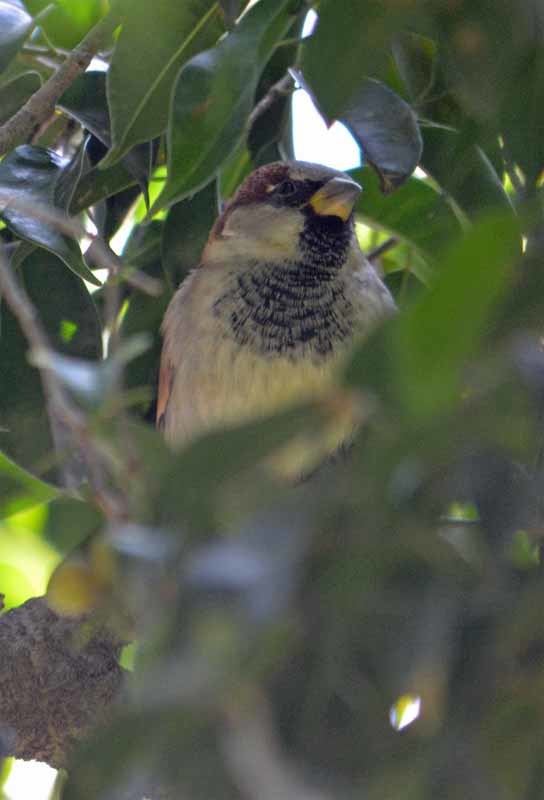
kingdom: Animalia
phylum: Chordata
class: Aves
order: Passeriformes
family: Passeridae
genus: Passer
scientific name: Passer domesticus
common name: House sparrow
